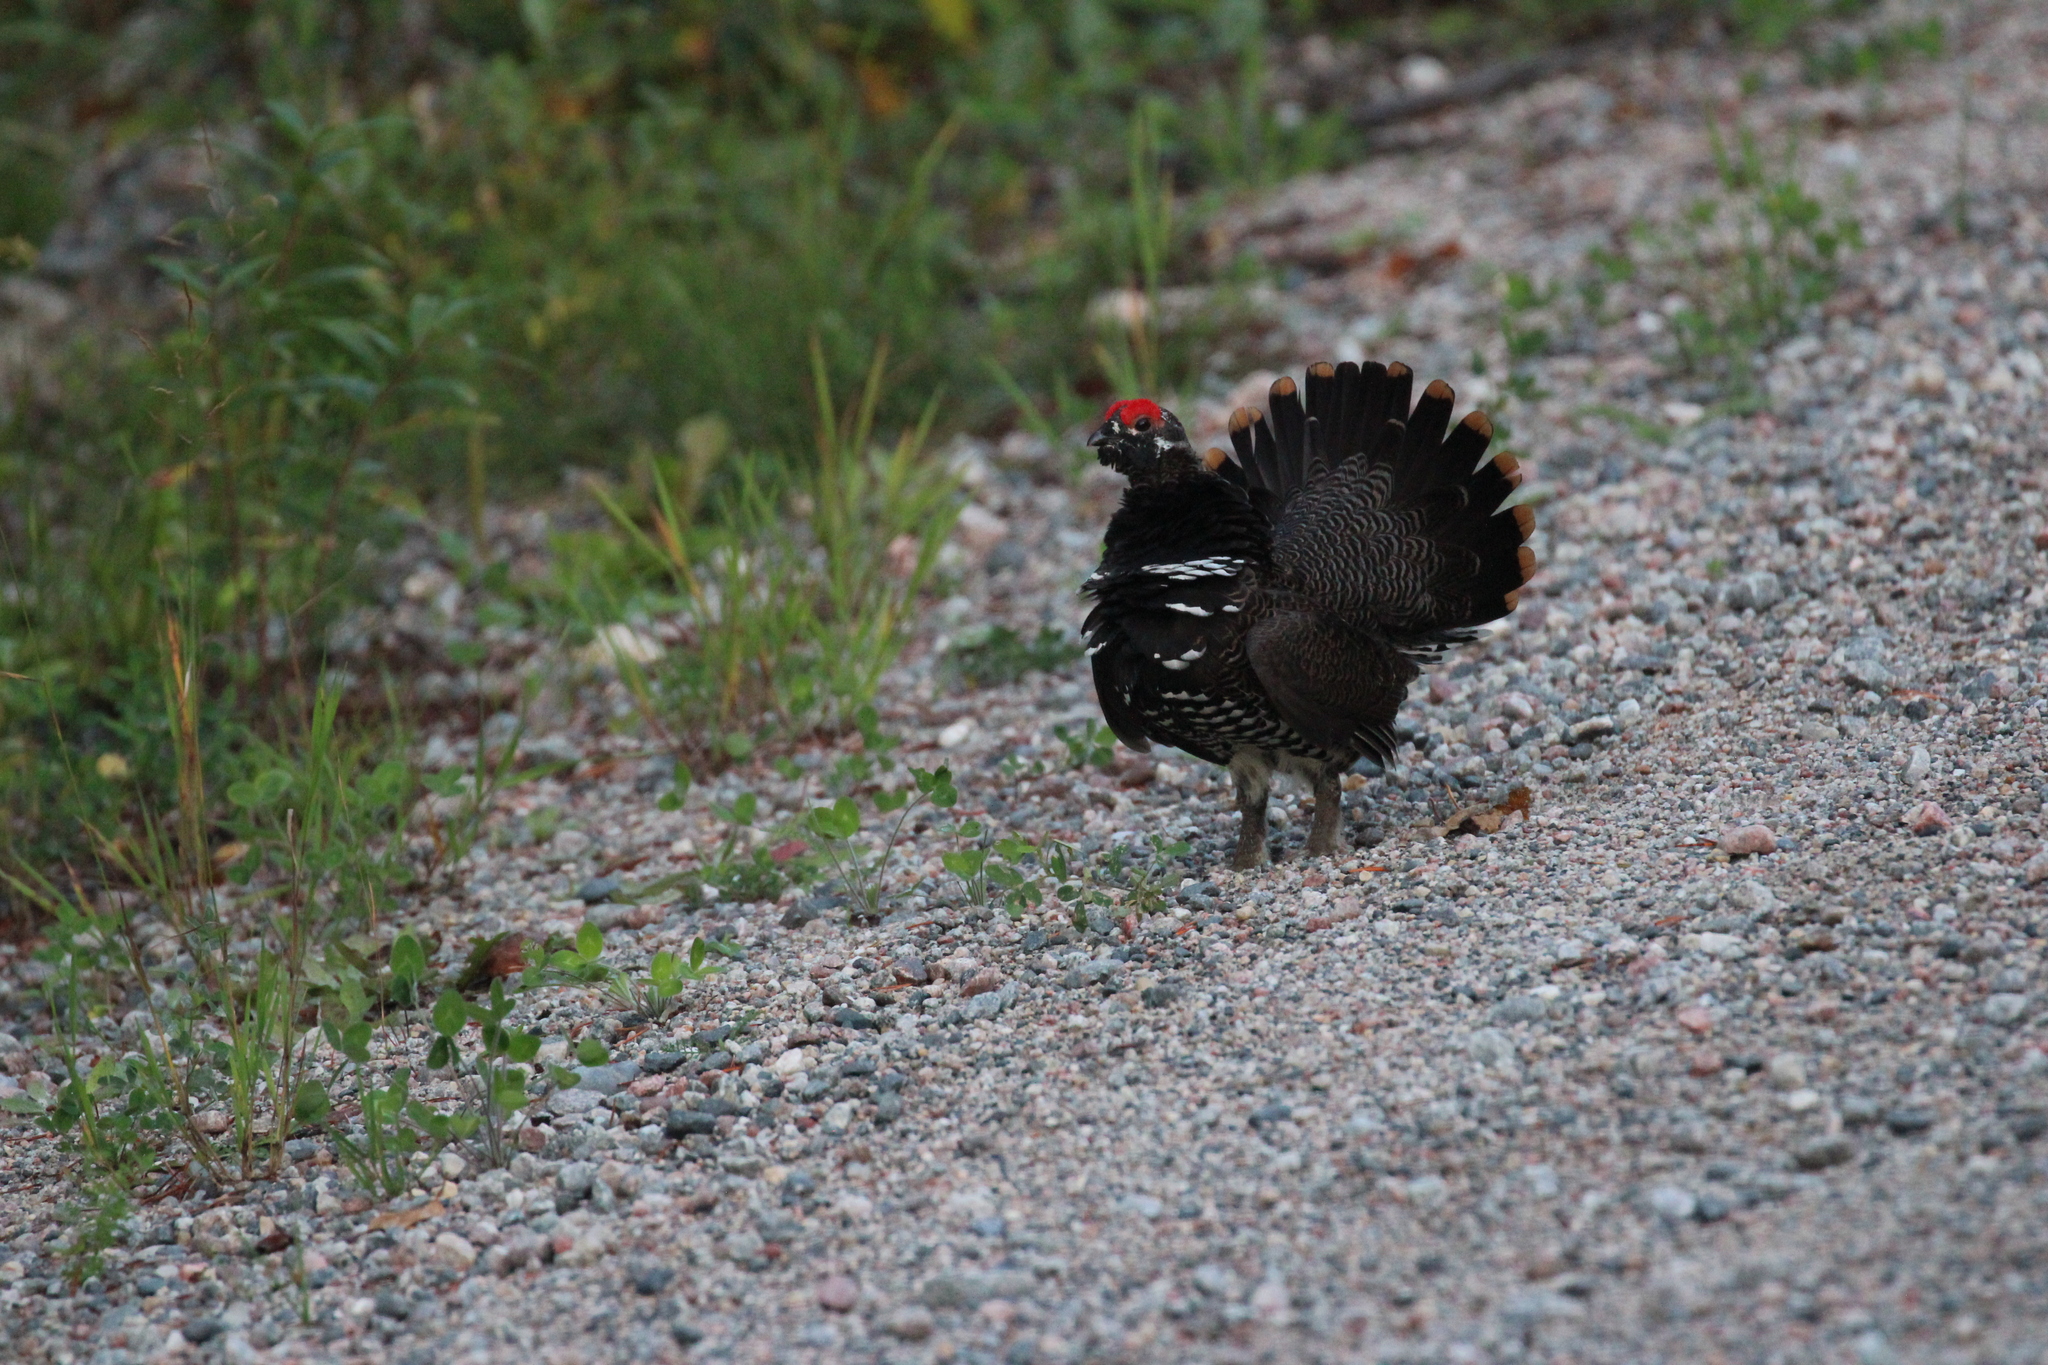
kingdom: Animalia
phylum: Chordata
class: Aves
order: Galliformes
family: Phasianidae
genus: Canachites
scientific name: Canachites canadensis
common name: Spruce grouse
